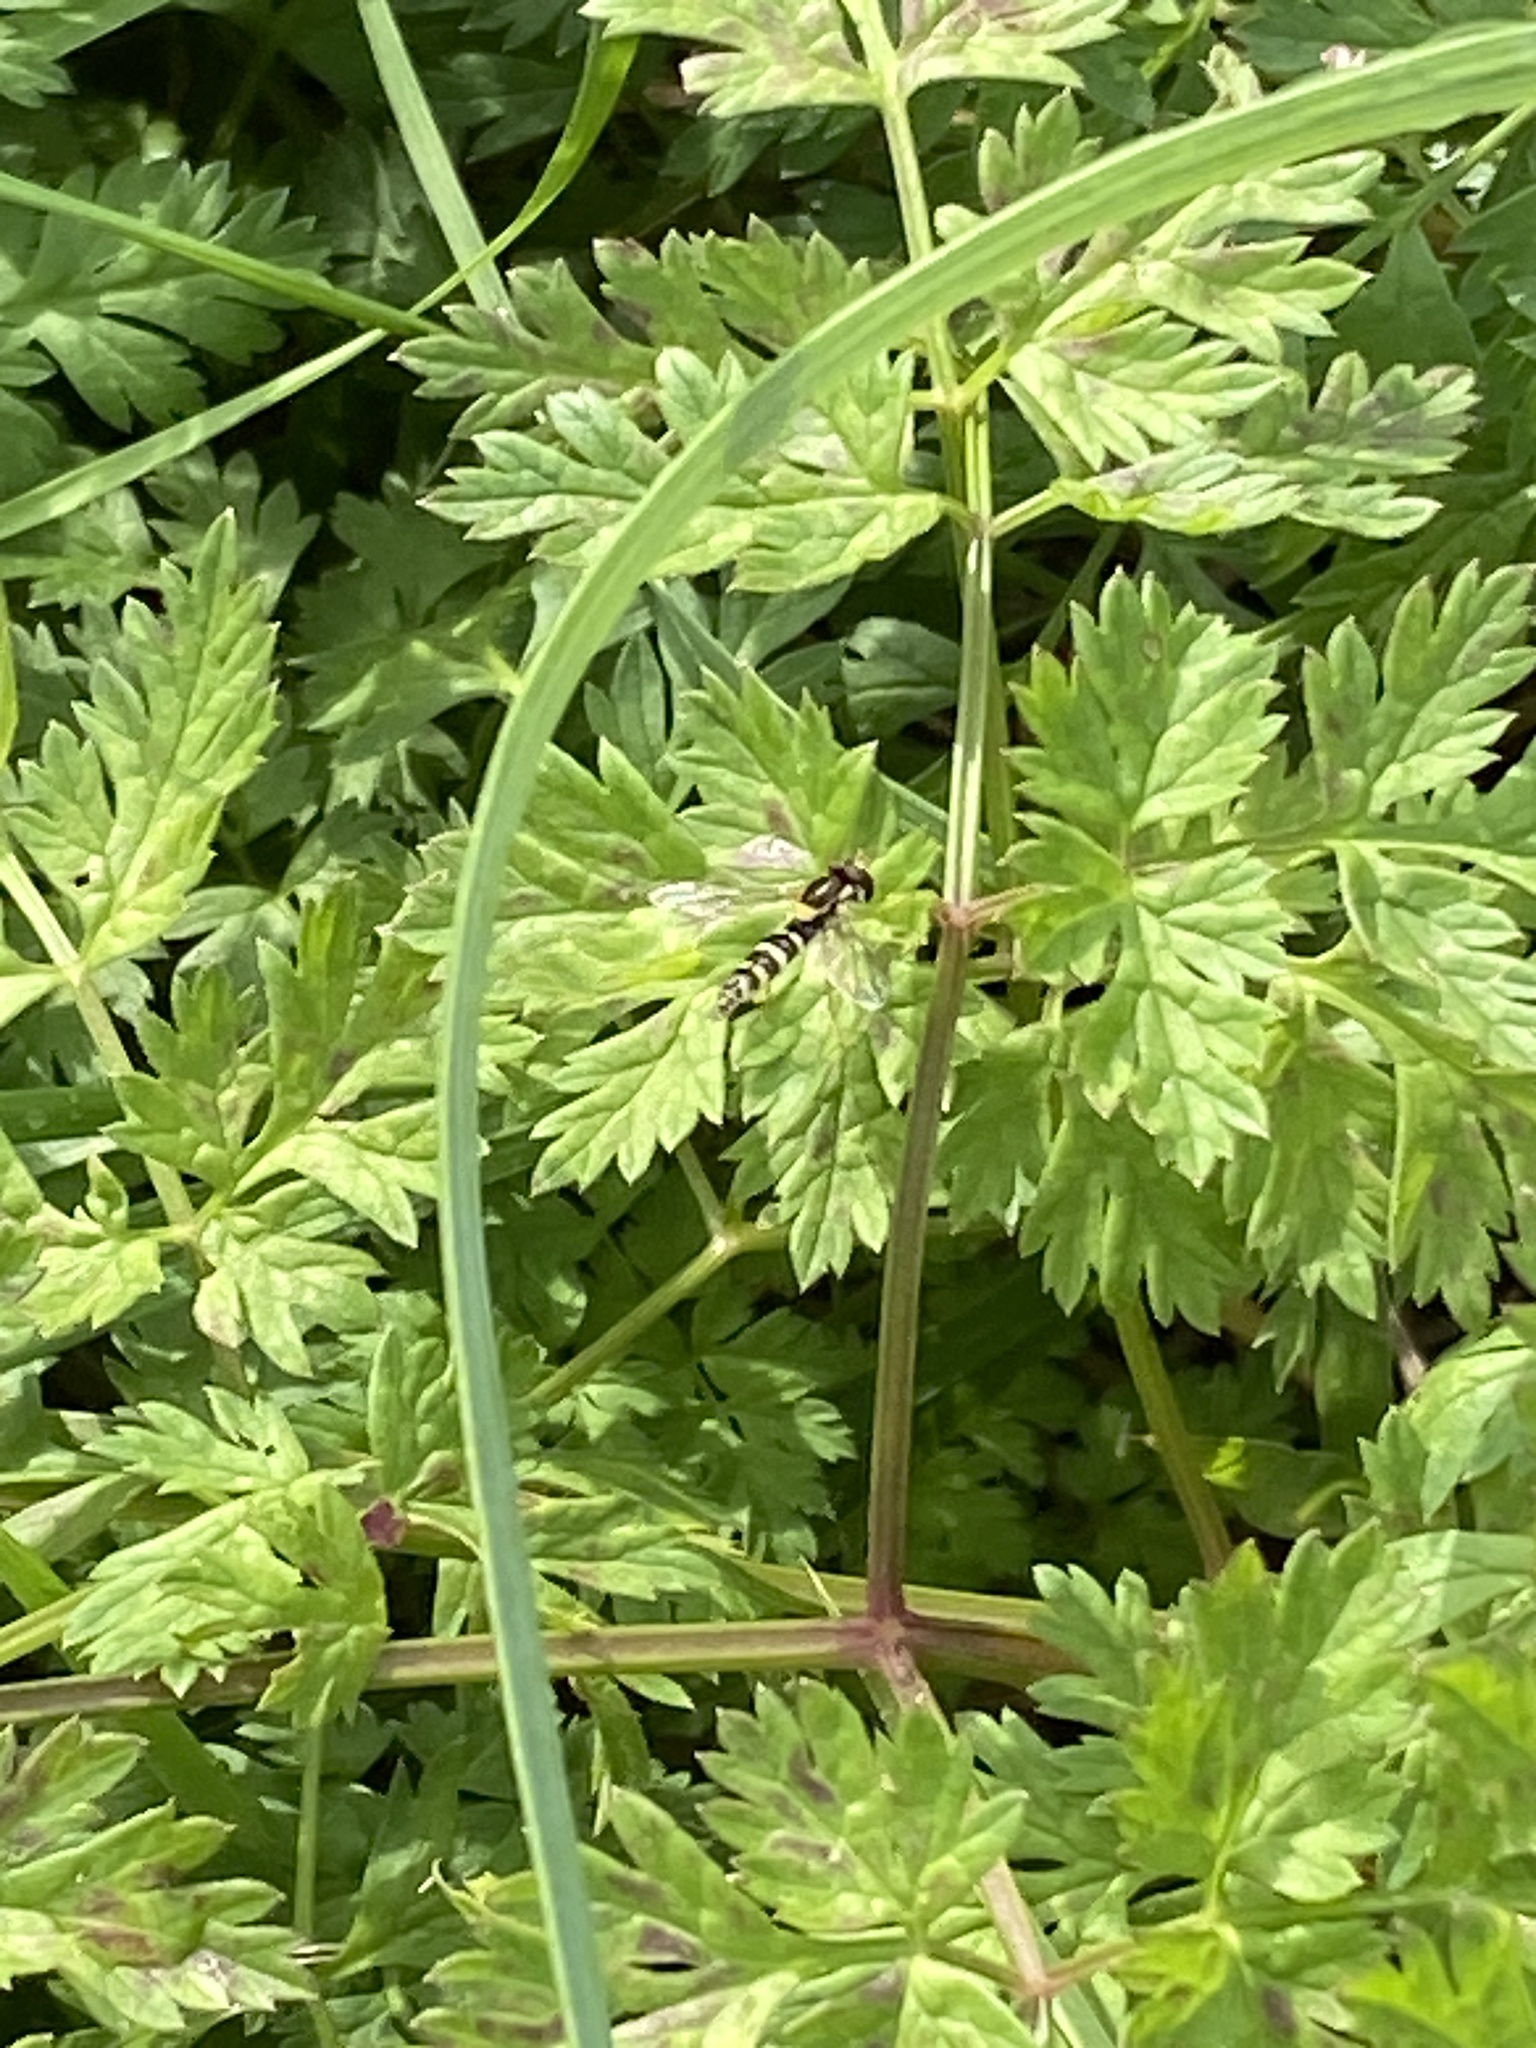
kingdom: Animalia
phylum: Arthropoda
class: Insecta
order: Diptera
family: Syrphidae
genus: Sphaerophoria
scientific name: Sphaerophoria
